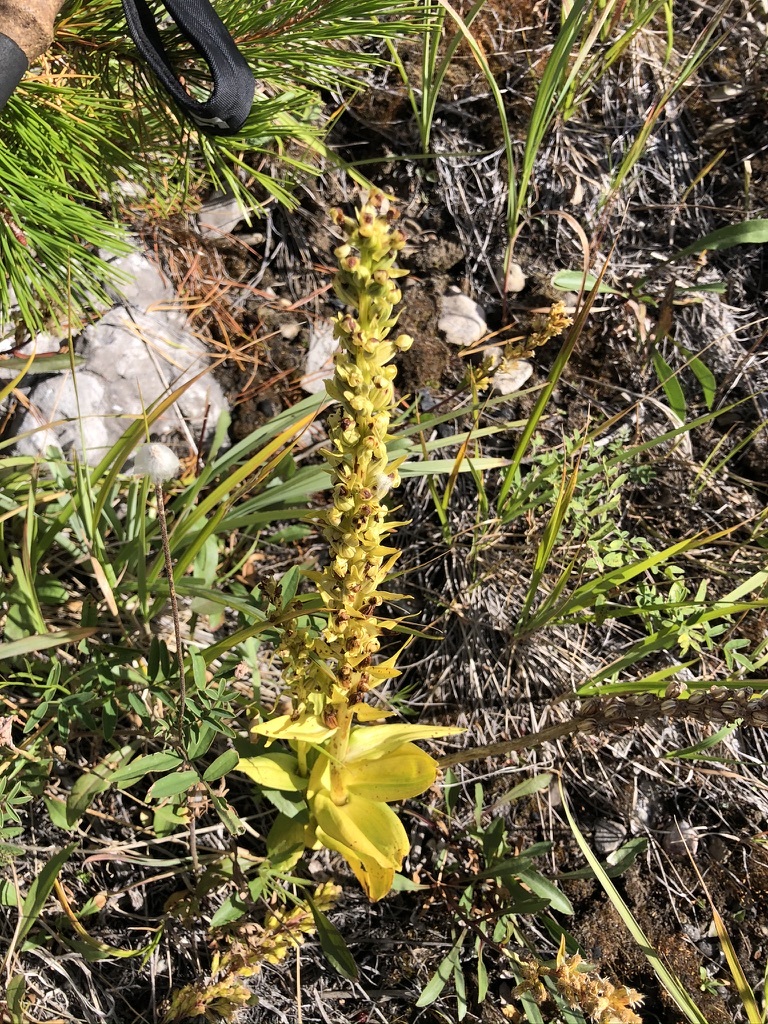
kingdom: Plantae
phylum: Tracheophyta
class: Liliopsida
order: Asparagales
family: Orchidaceae
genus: Dactylorhiza
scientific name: Dactylorhiza viridis
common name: Longbract frog orchid
